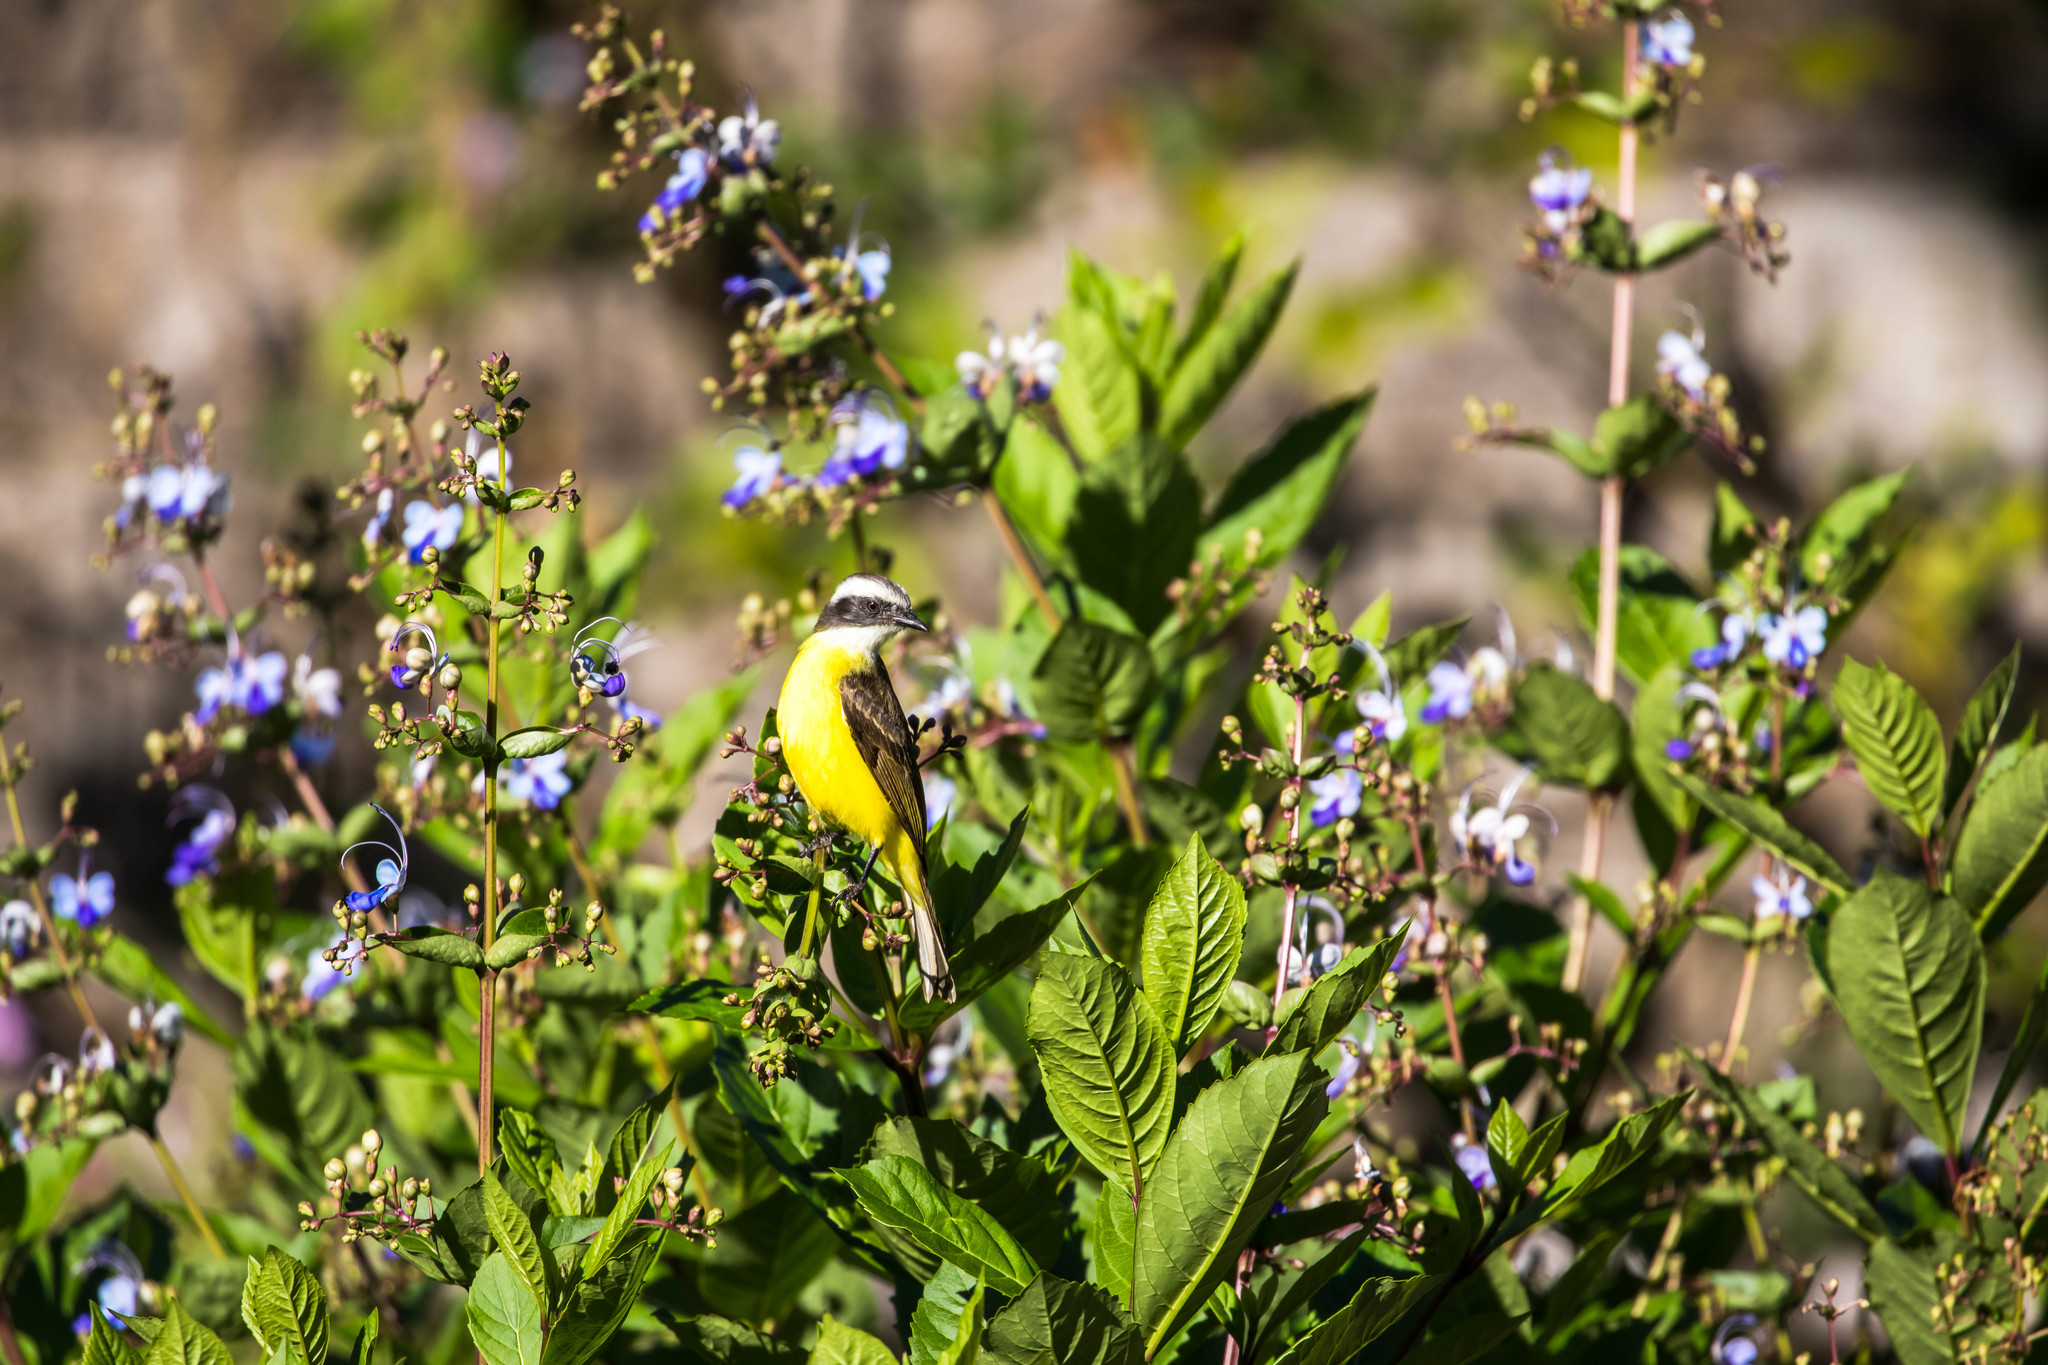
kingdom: Animalia
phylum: Chordata
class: Aves
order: Passeriformes
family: Tyrannidae
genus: Myiozetetes
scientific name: Myiozetetes similis
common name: Social flycatcher
